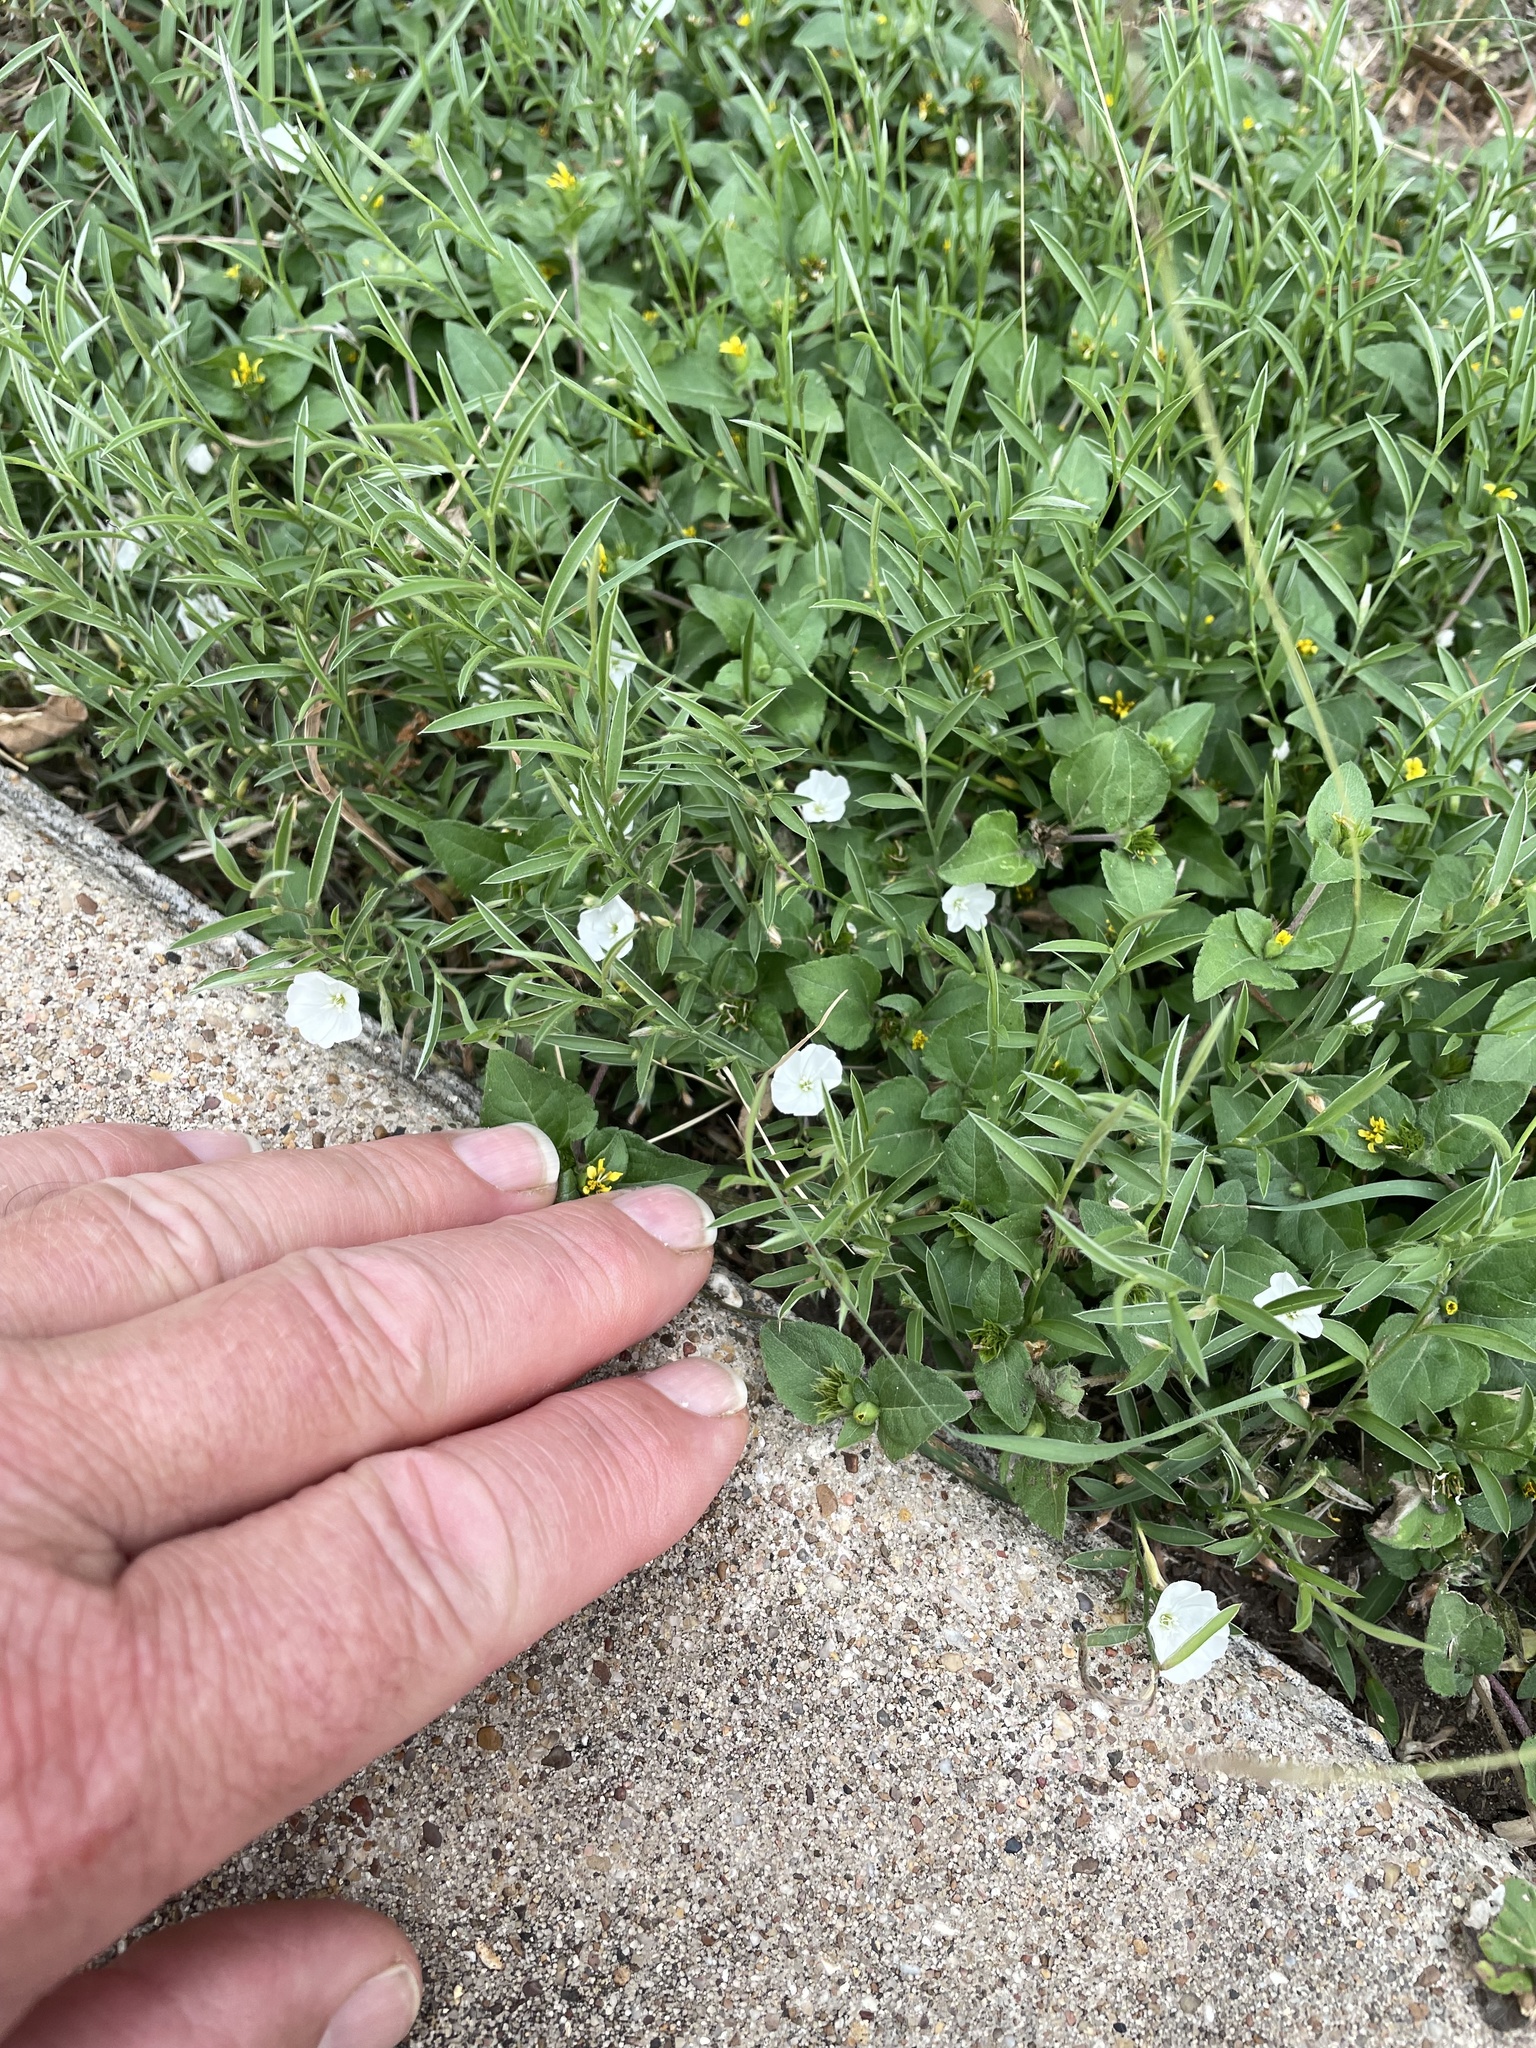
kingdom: Plantae
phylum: Tracheophyta
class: Magnoliopsida
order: Solanales
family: Convolvulaceae
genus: Evolvulus
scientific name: Evolvulus sericeus
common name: Blue dots
